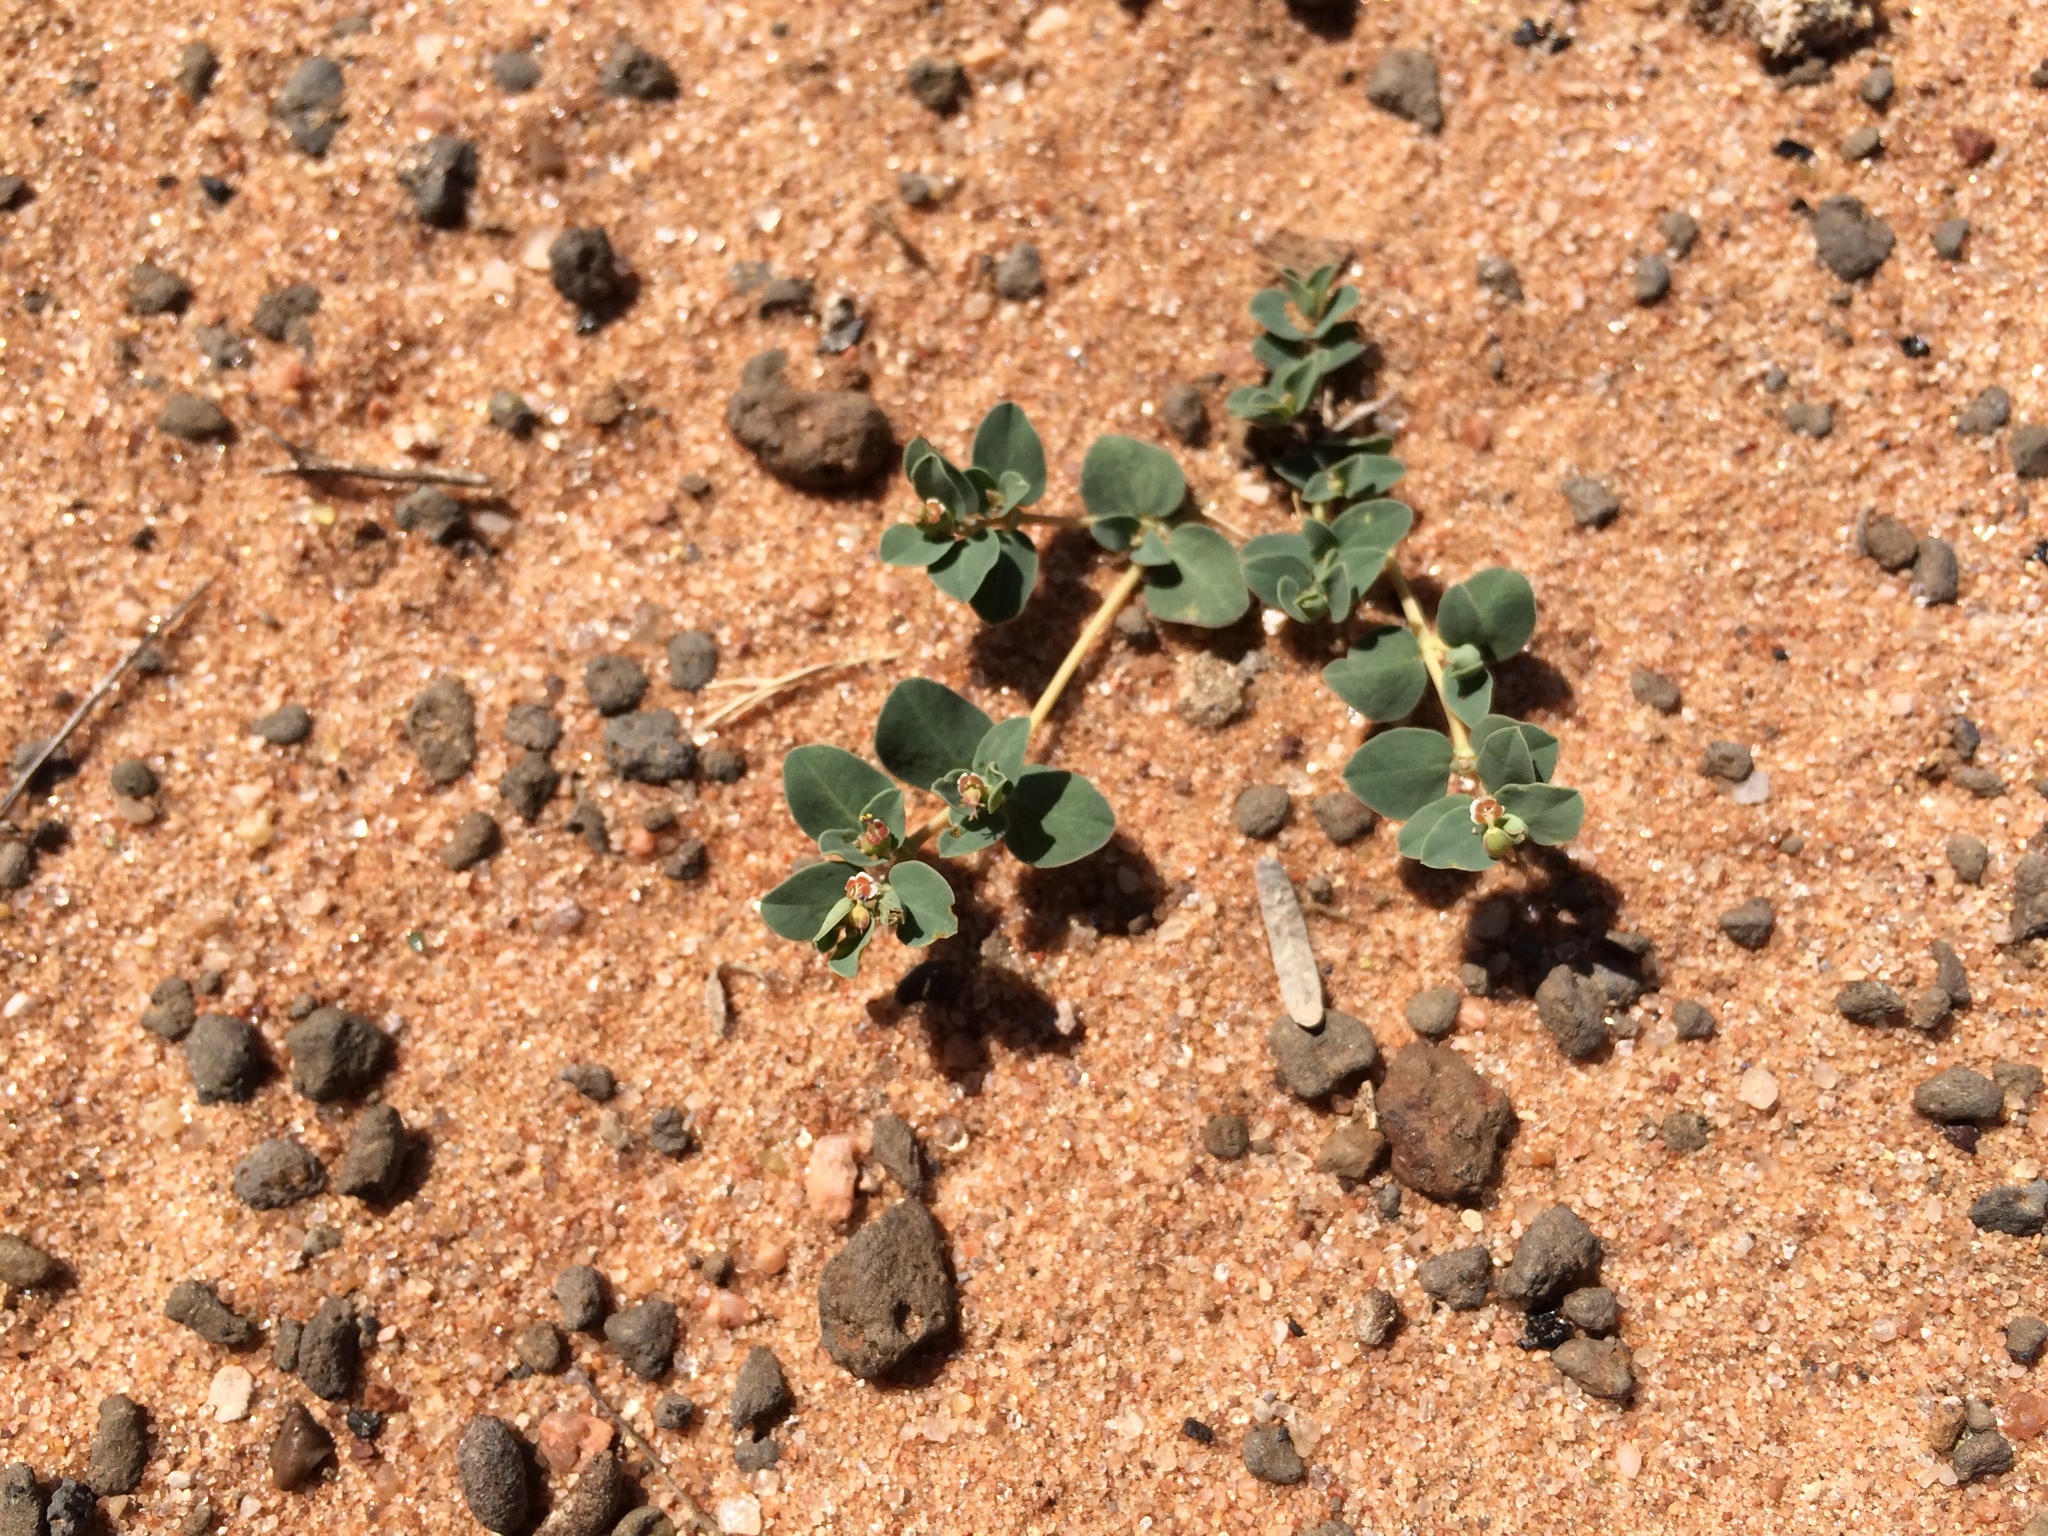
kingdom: Plantae
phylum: Tracheophyta
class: Magnoliopsida
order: Malpighiales
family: Euphorbiaceae
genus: Euphorbia
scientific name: Euphorbia albomarginata
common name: Whitemargin sandmat
